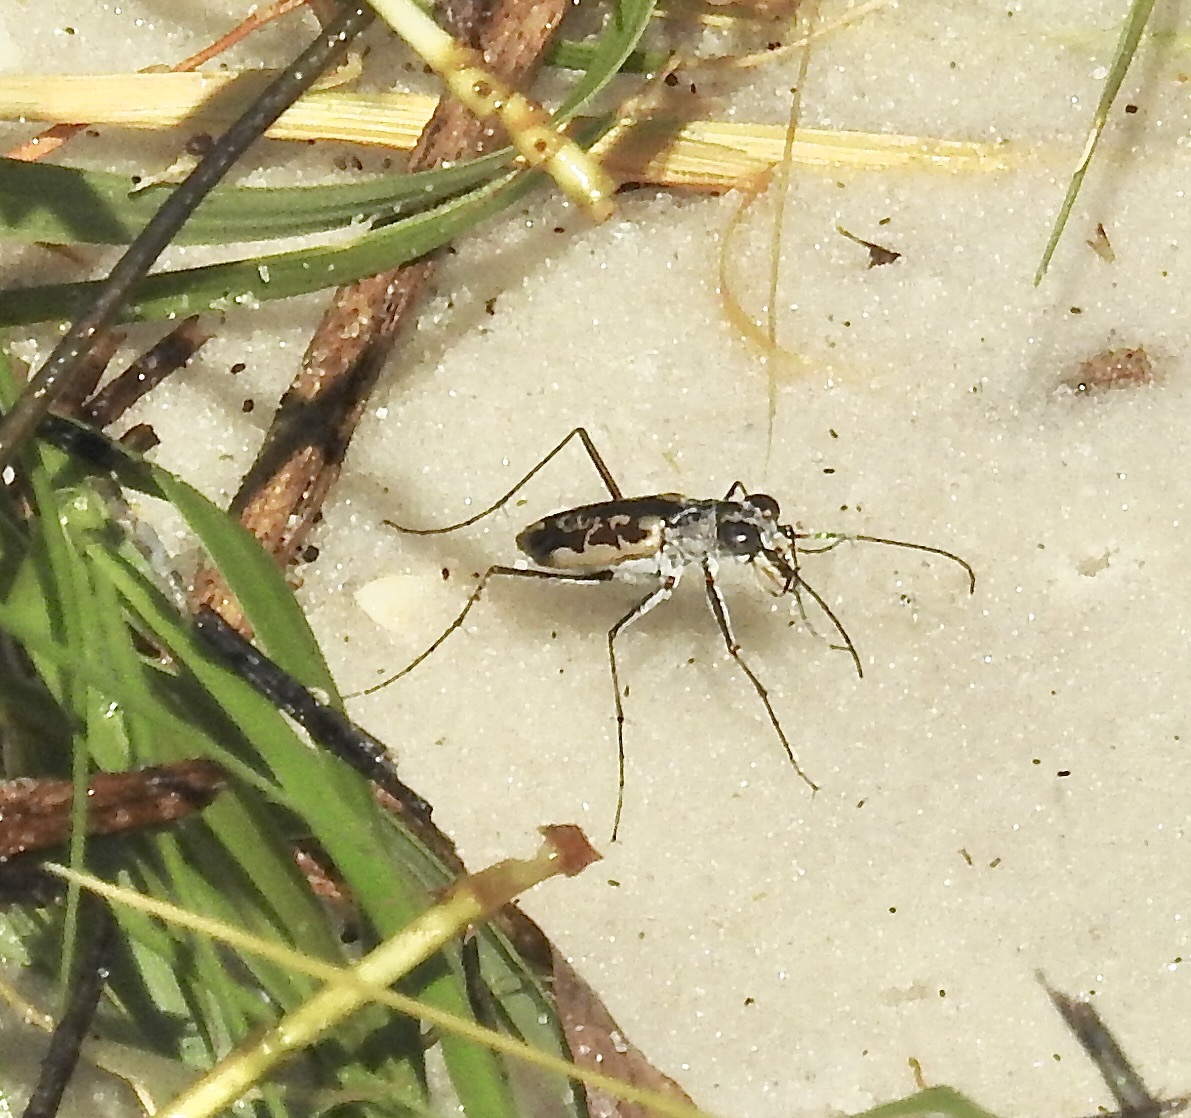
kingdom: Animalia
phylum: Arthropoda
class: Insecta
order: Coleoptera
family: Carabidae
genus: Ellipsoptera
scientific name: Ellipsoptera hamata
